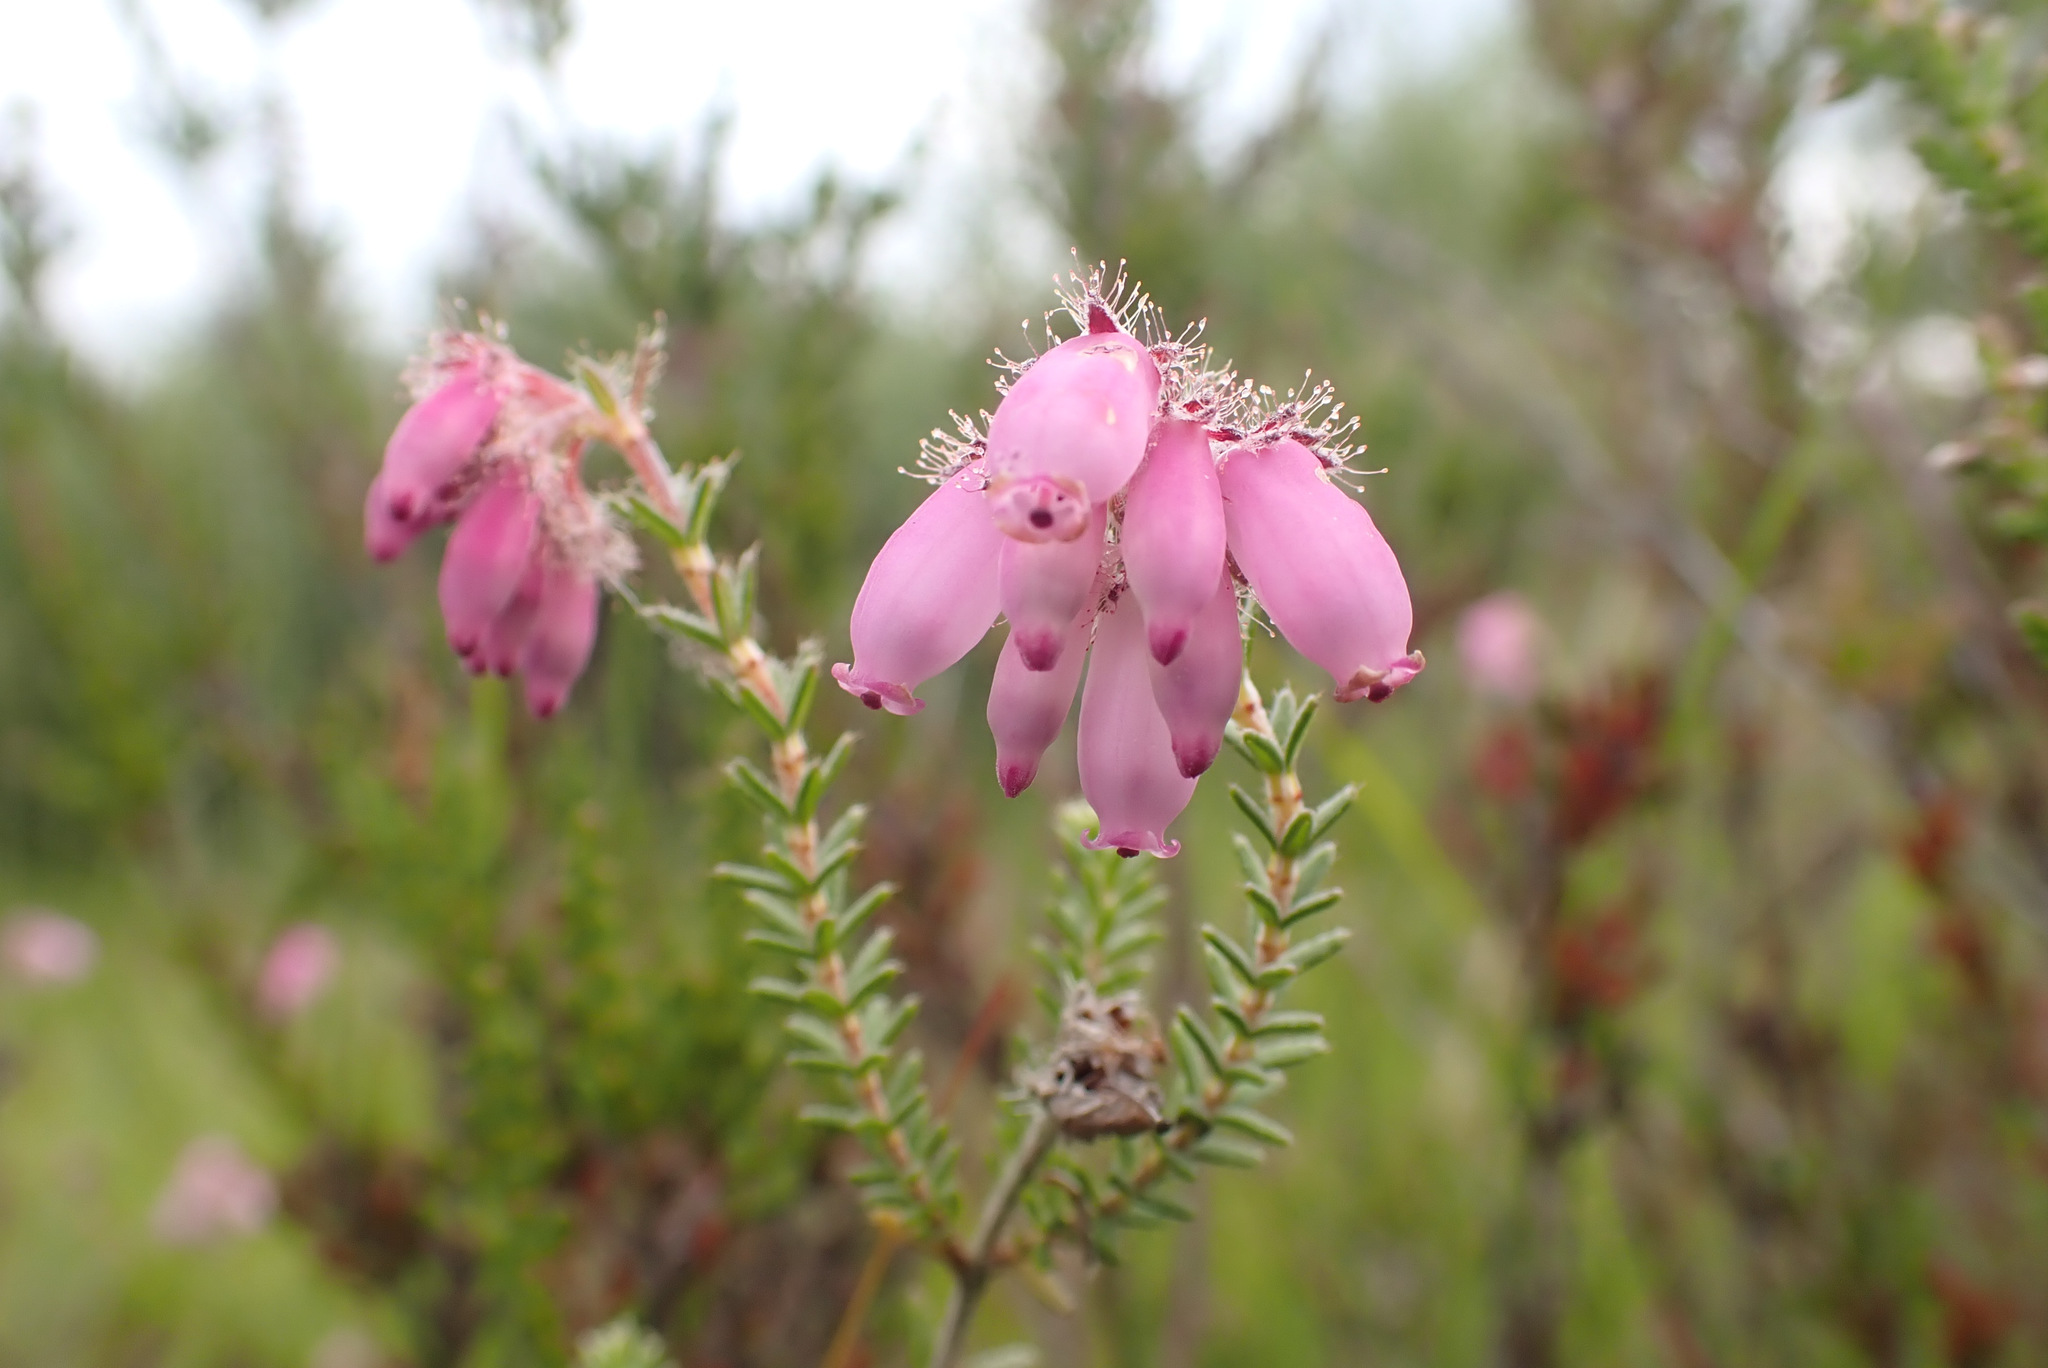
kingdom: Plantae
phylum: Tracheophyta
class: Magnoliopsida
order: Ericales
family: Ericaceae
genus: Erica
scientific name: Erica tetralix
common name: Cross-leaved heath
